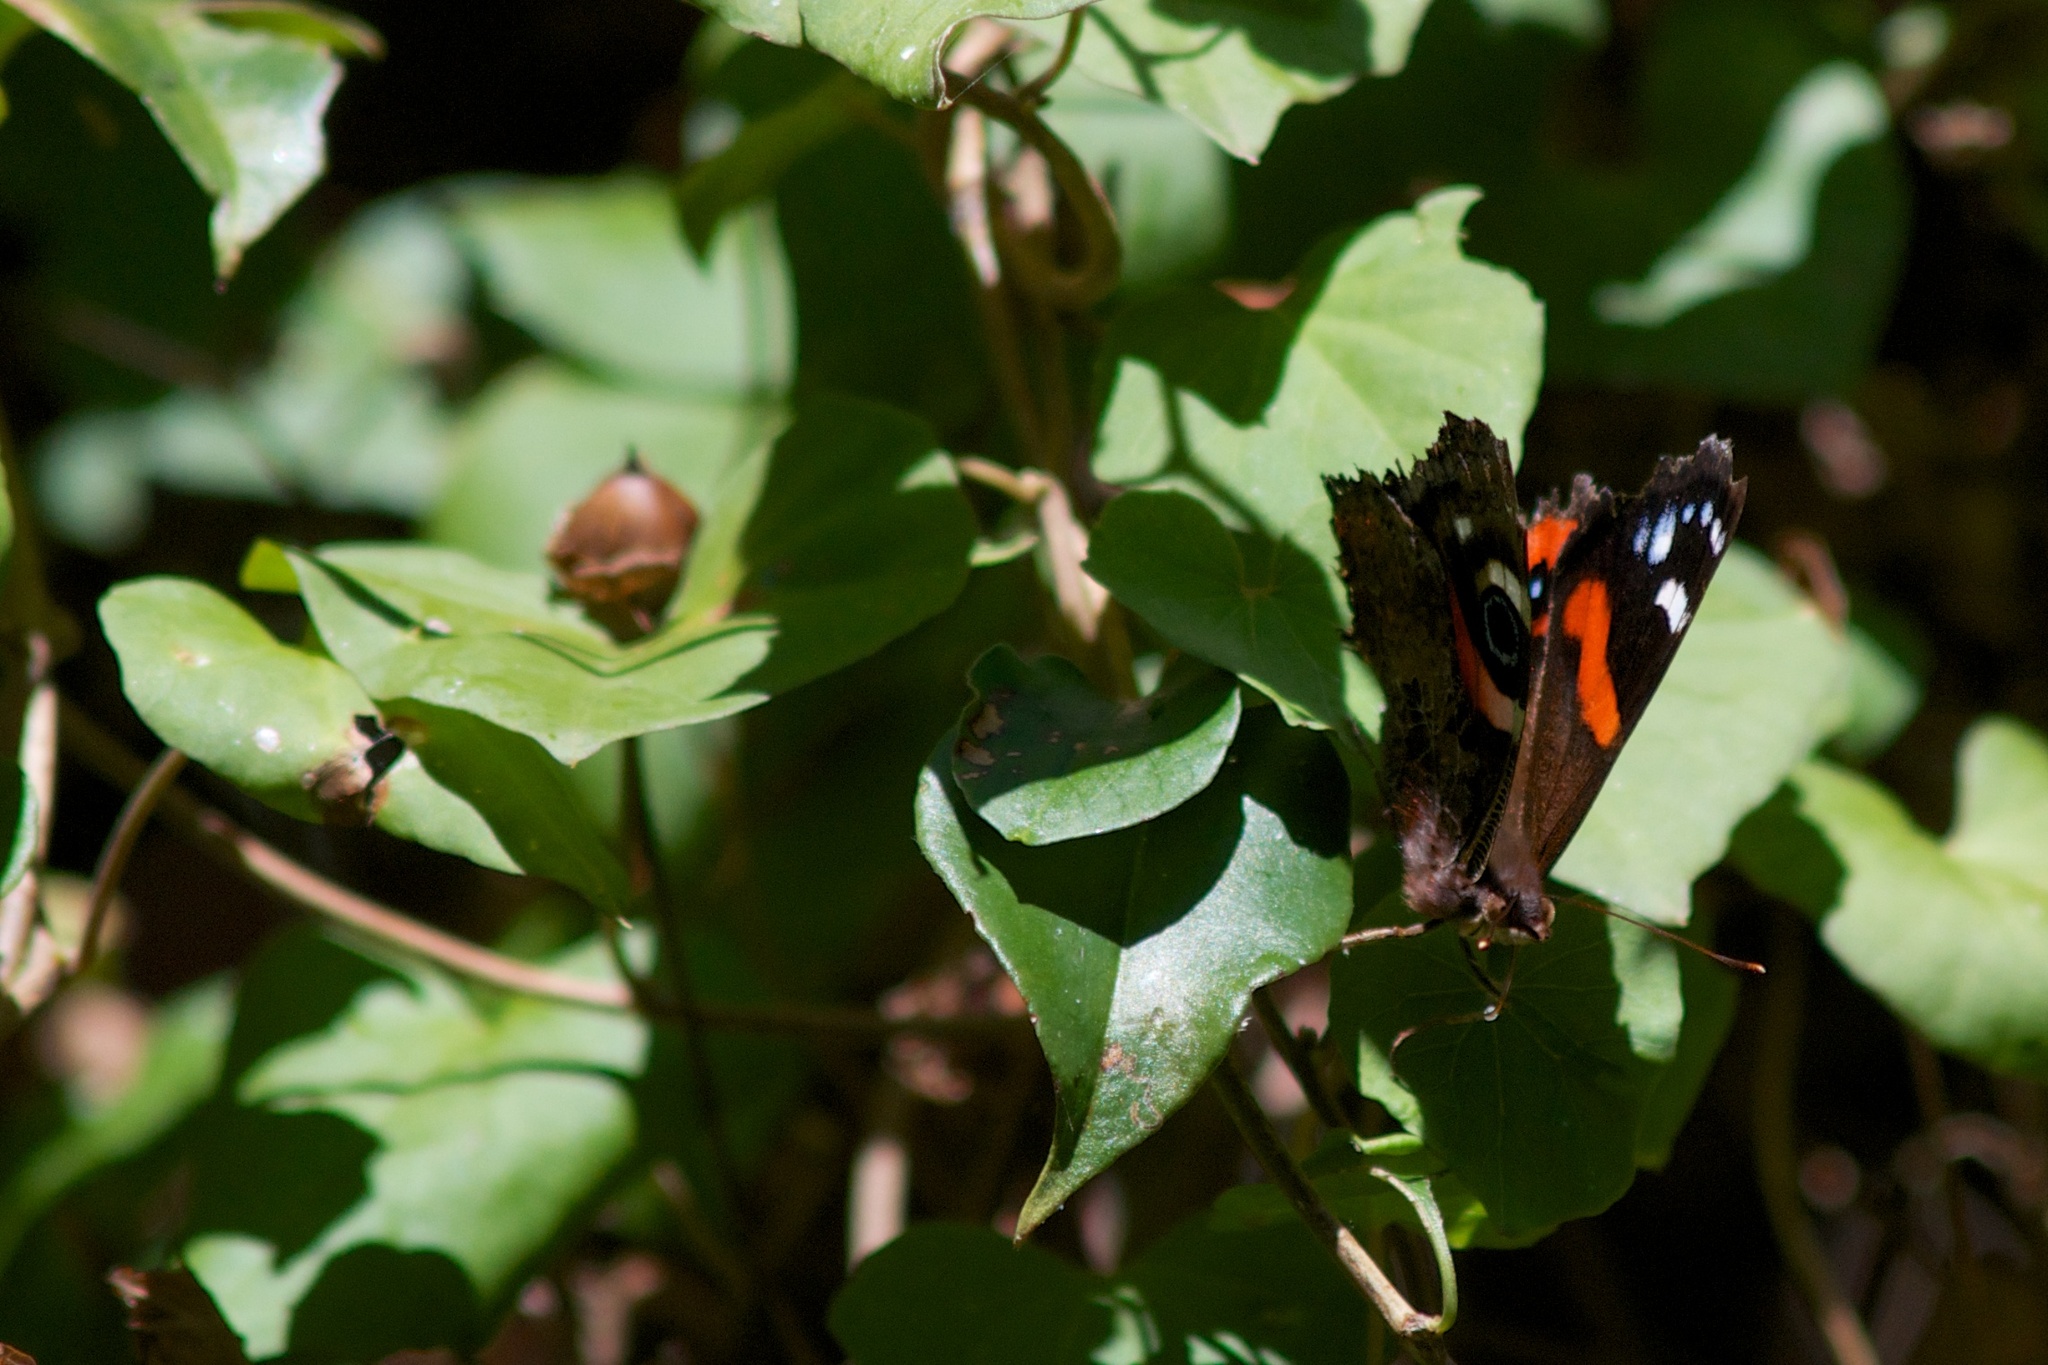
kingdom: Animalia
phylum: Arthropoda
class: Insecta
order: Lepidoptera
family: Nymphalidae
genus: Vanessa
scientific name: Vanessa gonerilla
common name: New zealand red admiral
